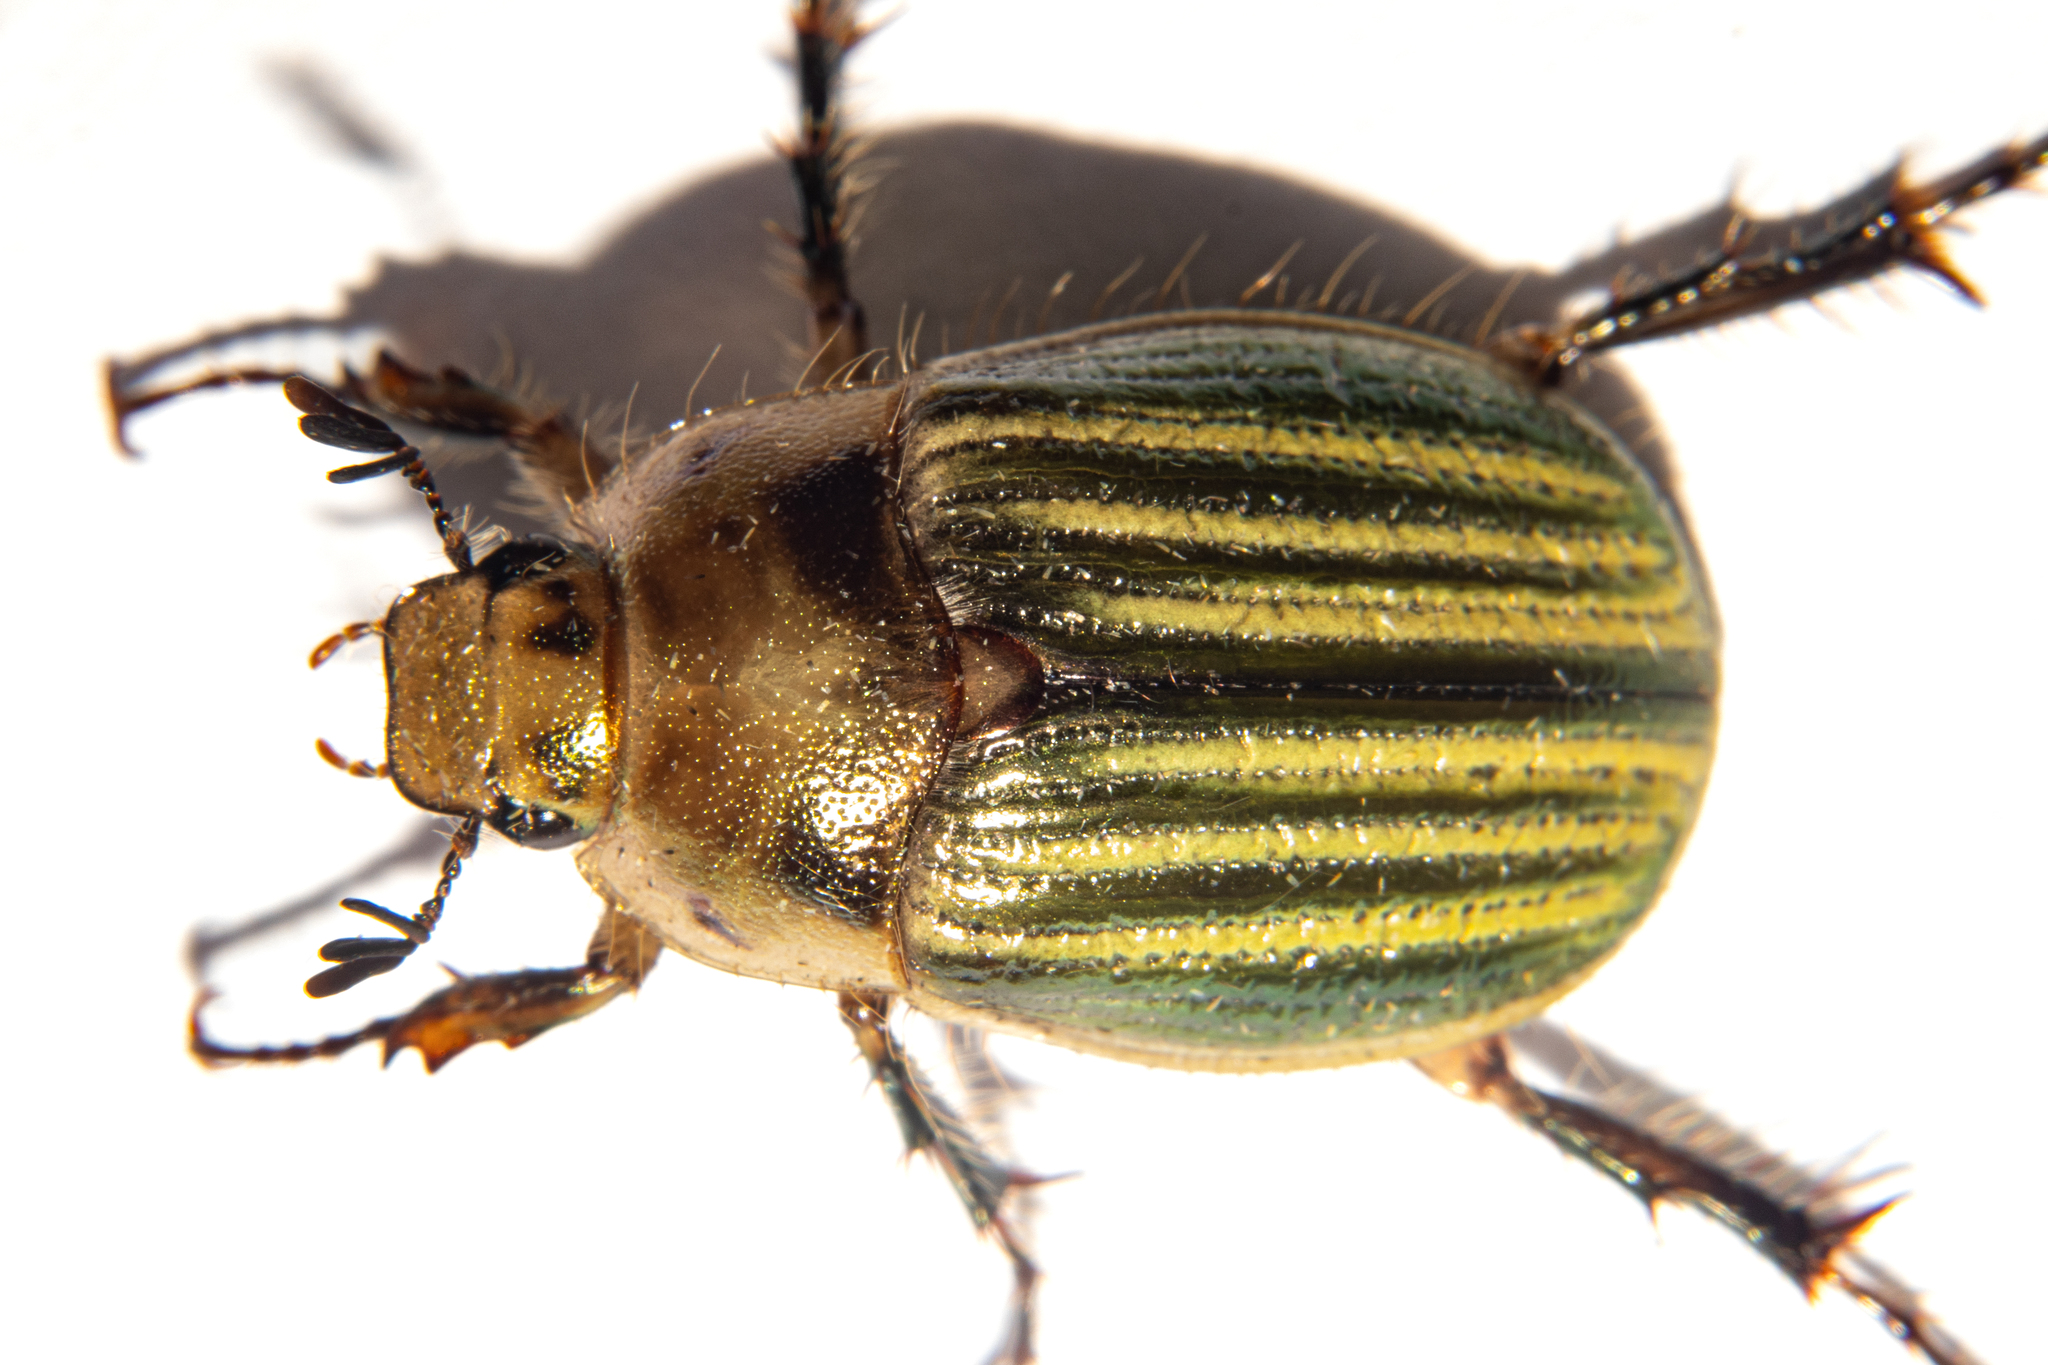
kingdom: Animalia
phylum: Arthropoda
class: Insecta
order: Coleoptera
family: Scarabaeidae
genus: Stethaspis
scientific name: Stethaspis pulchra
